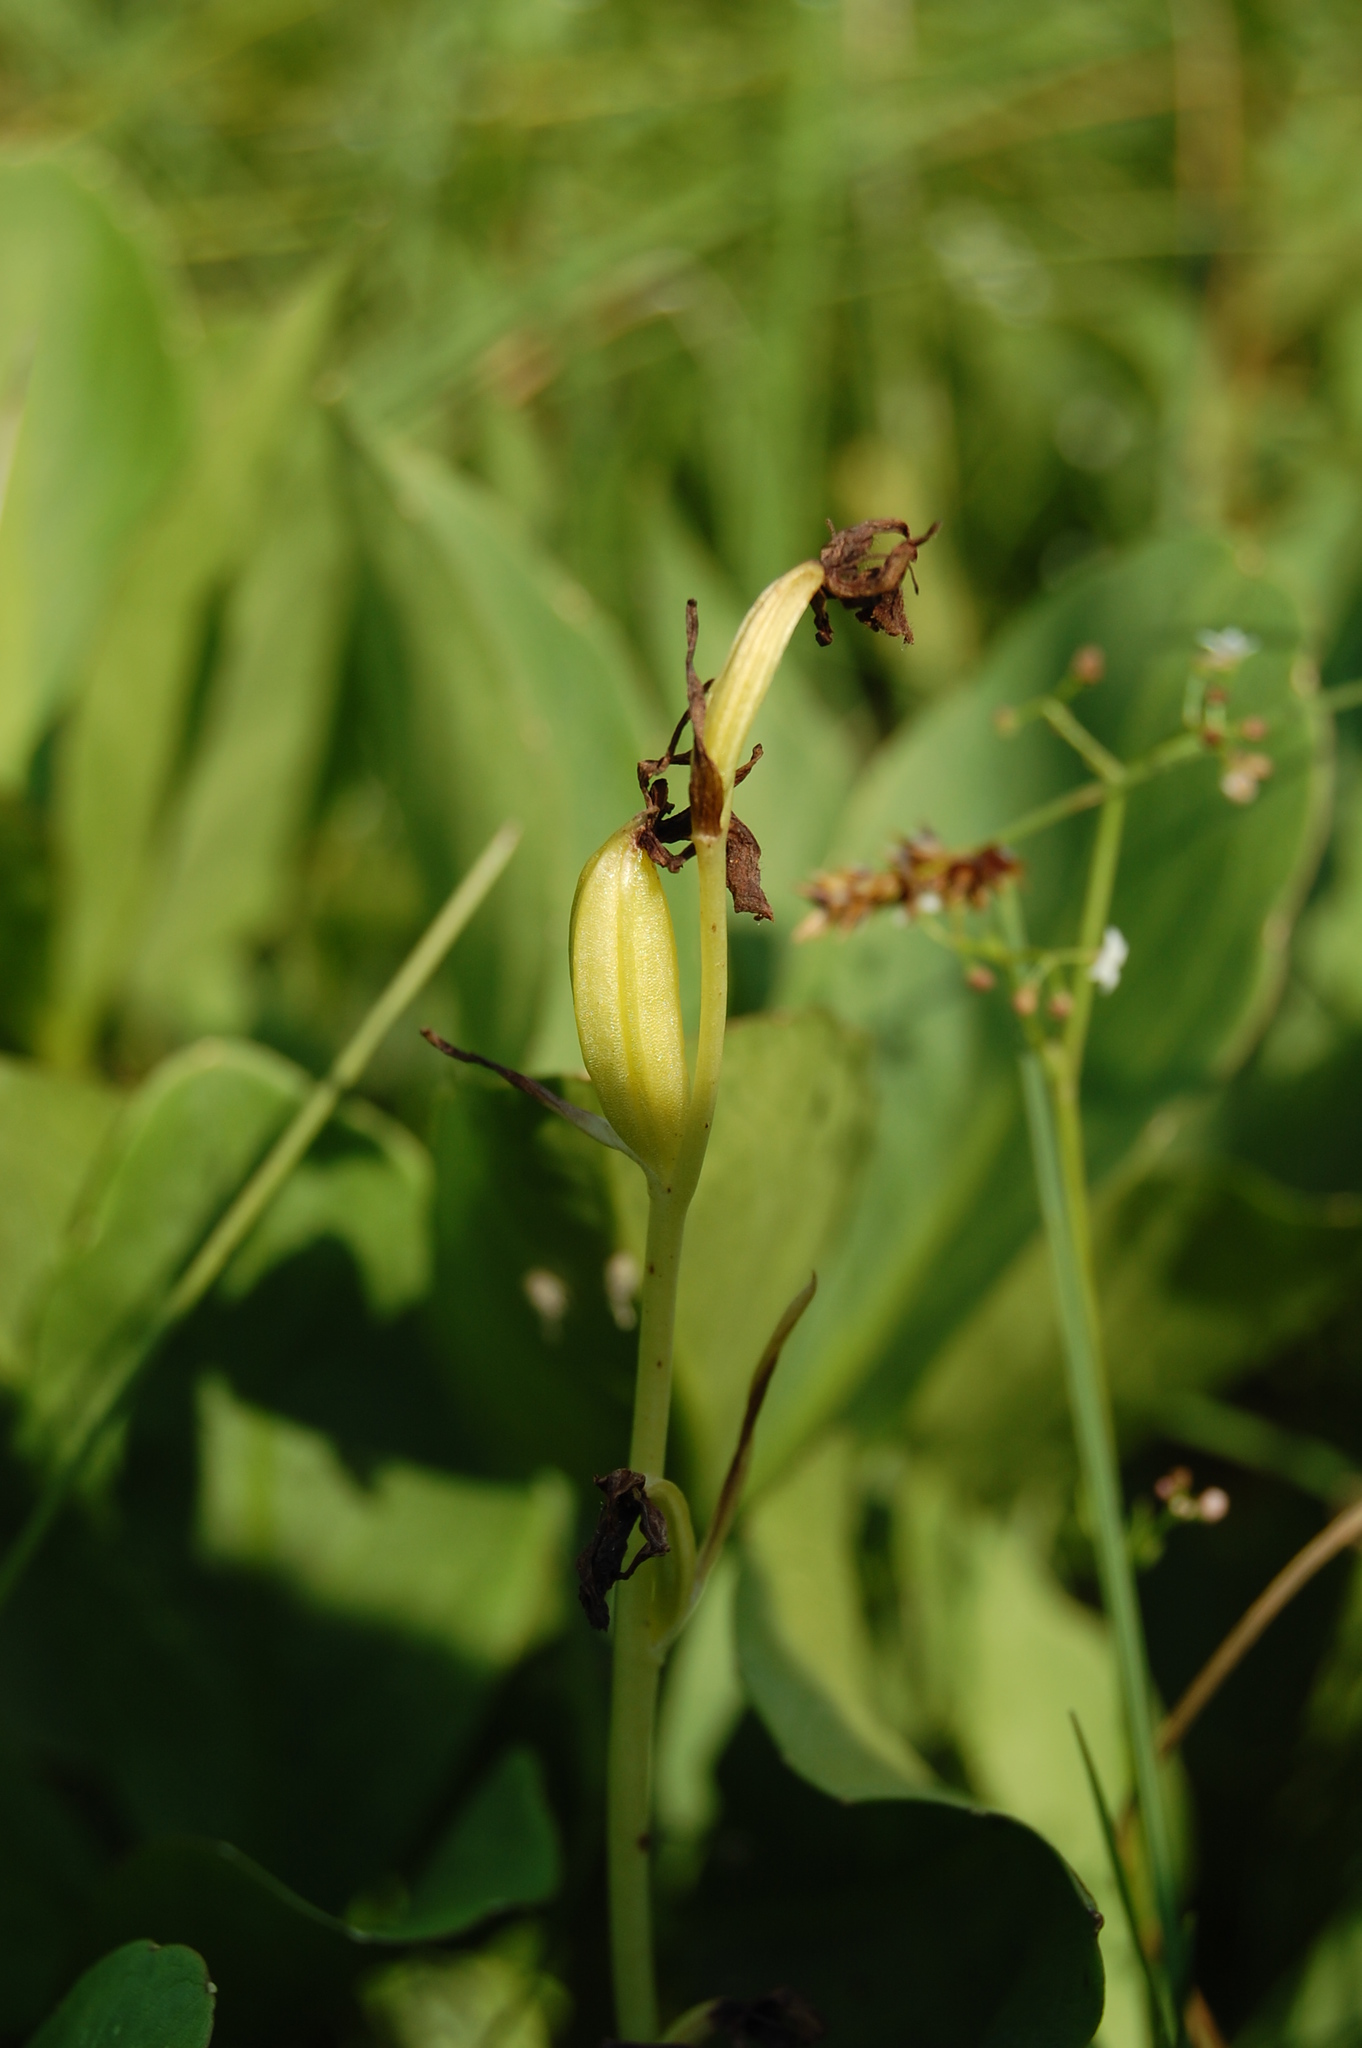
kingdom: Plantae
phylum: Tracheophyta
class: Liliopsida
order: Asparagales
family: Orchidaceae
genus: Ophrys
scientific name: Ophrys insectifera
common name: Fly orchid
